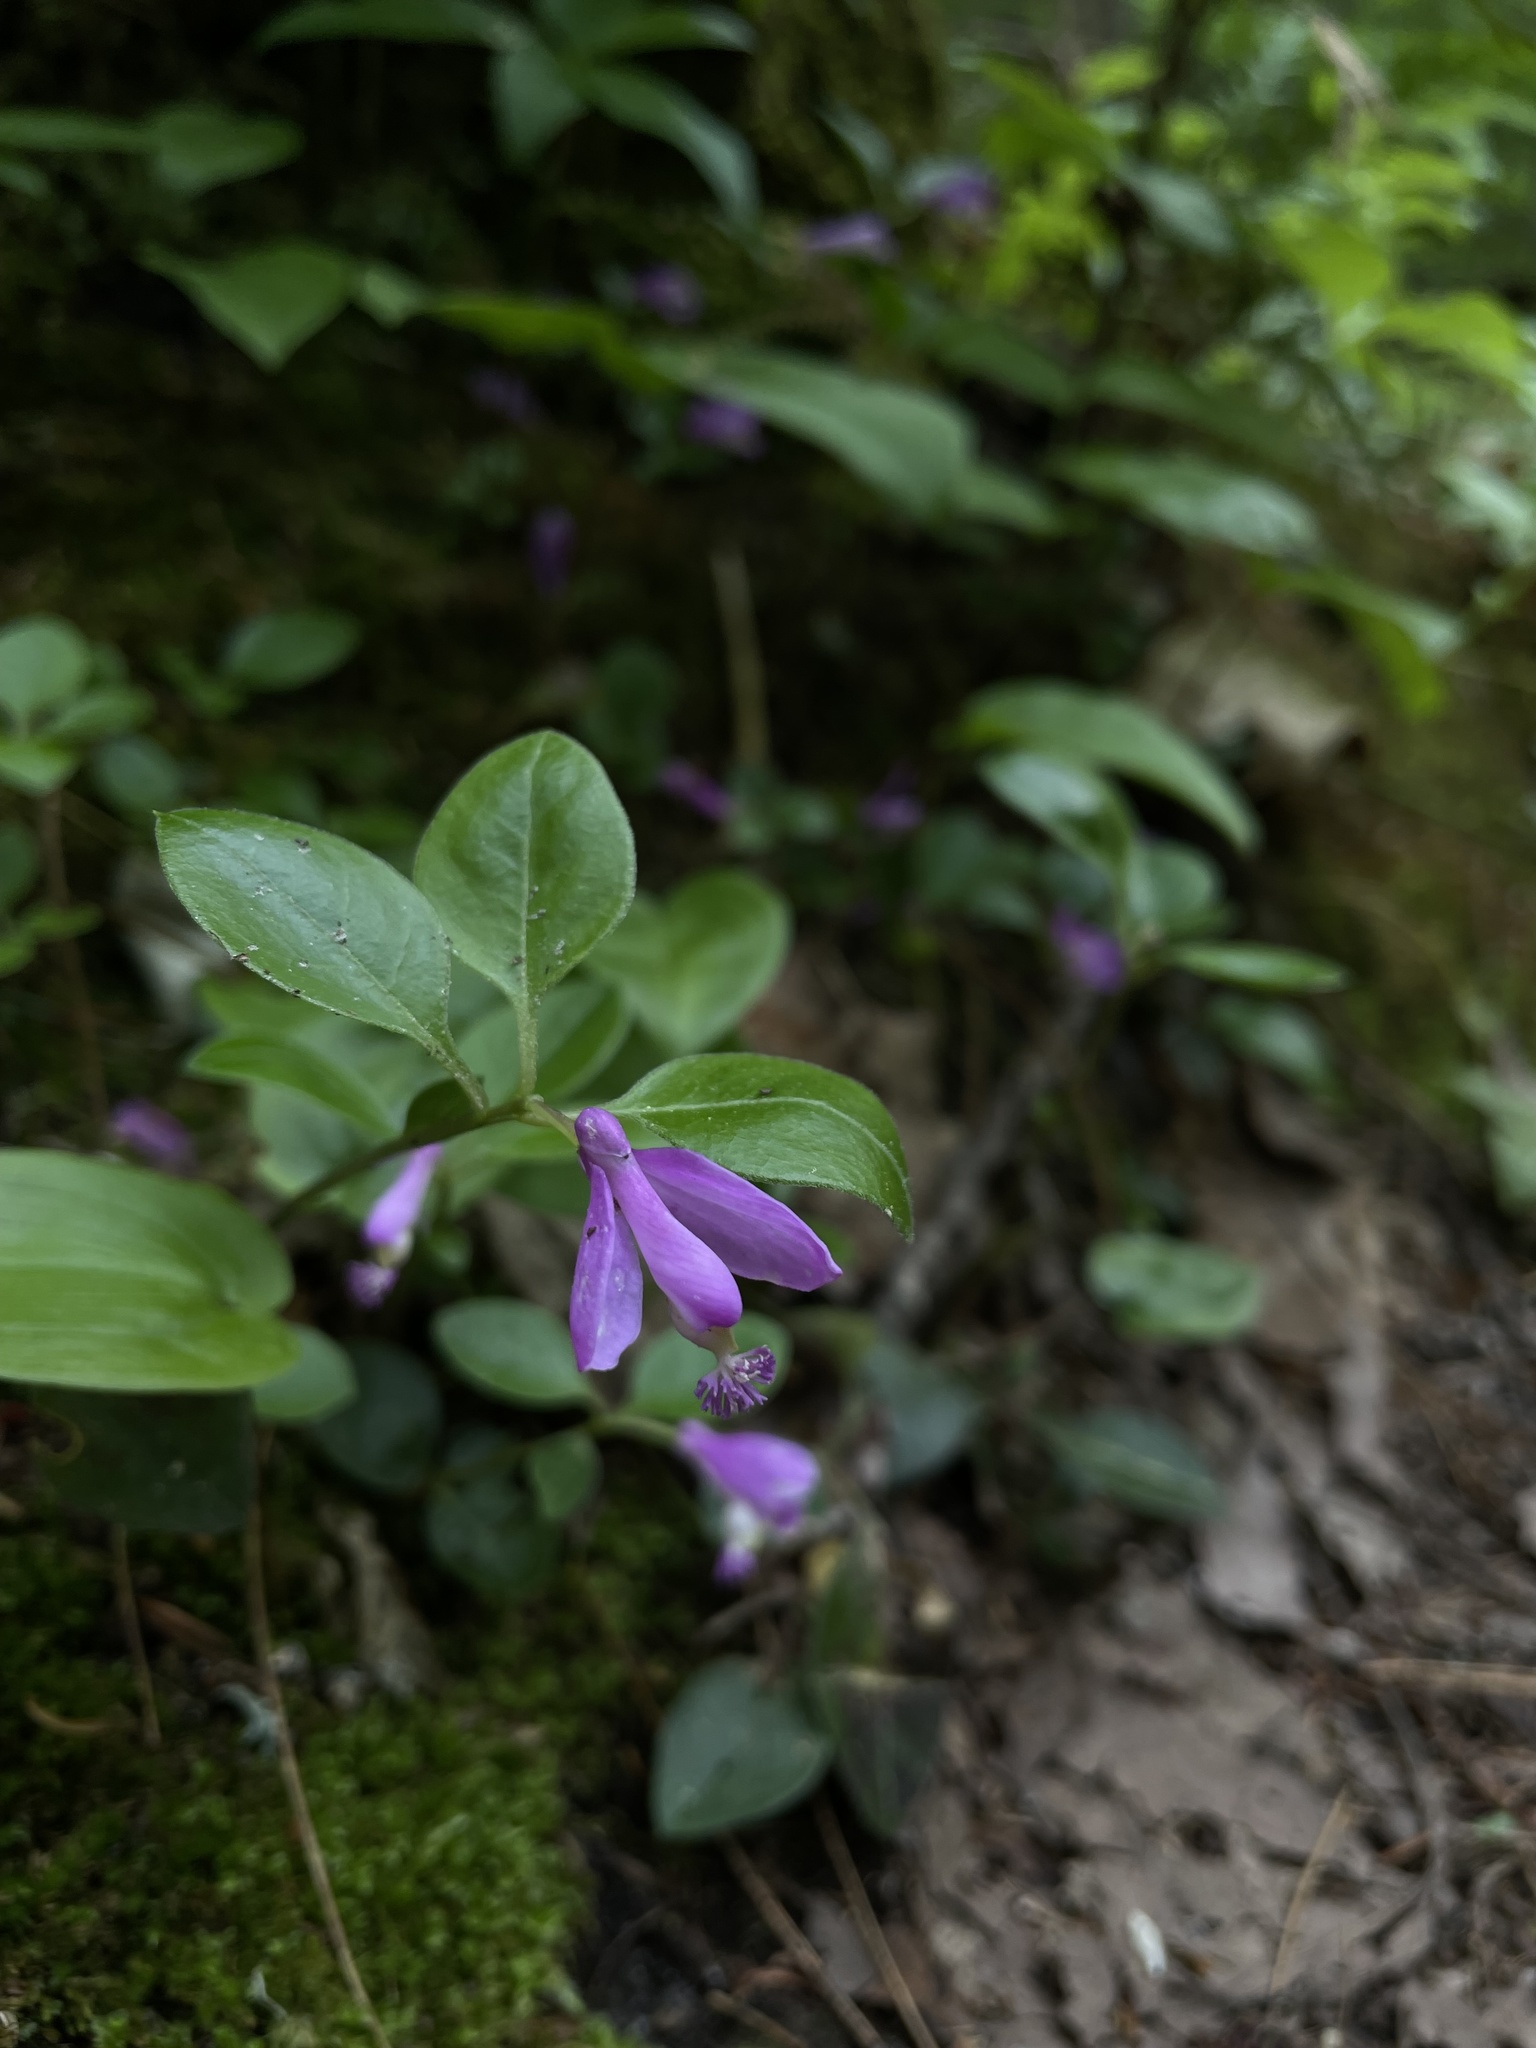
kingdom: Plantae
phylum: Tracheophyta
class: Magnoliopsida
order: Fabales
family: Polygalaceae
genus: Polygaloides
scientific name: Polygaloides paucifolia
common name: Bird-on-the-wing
